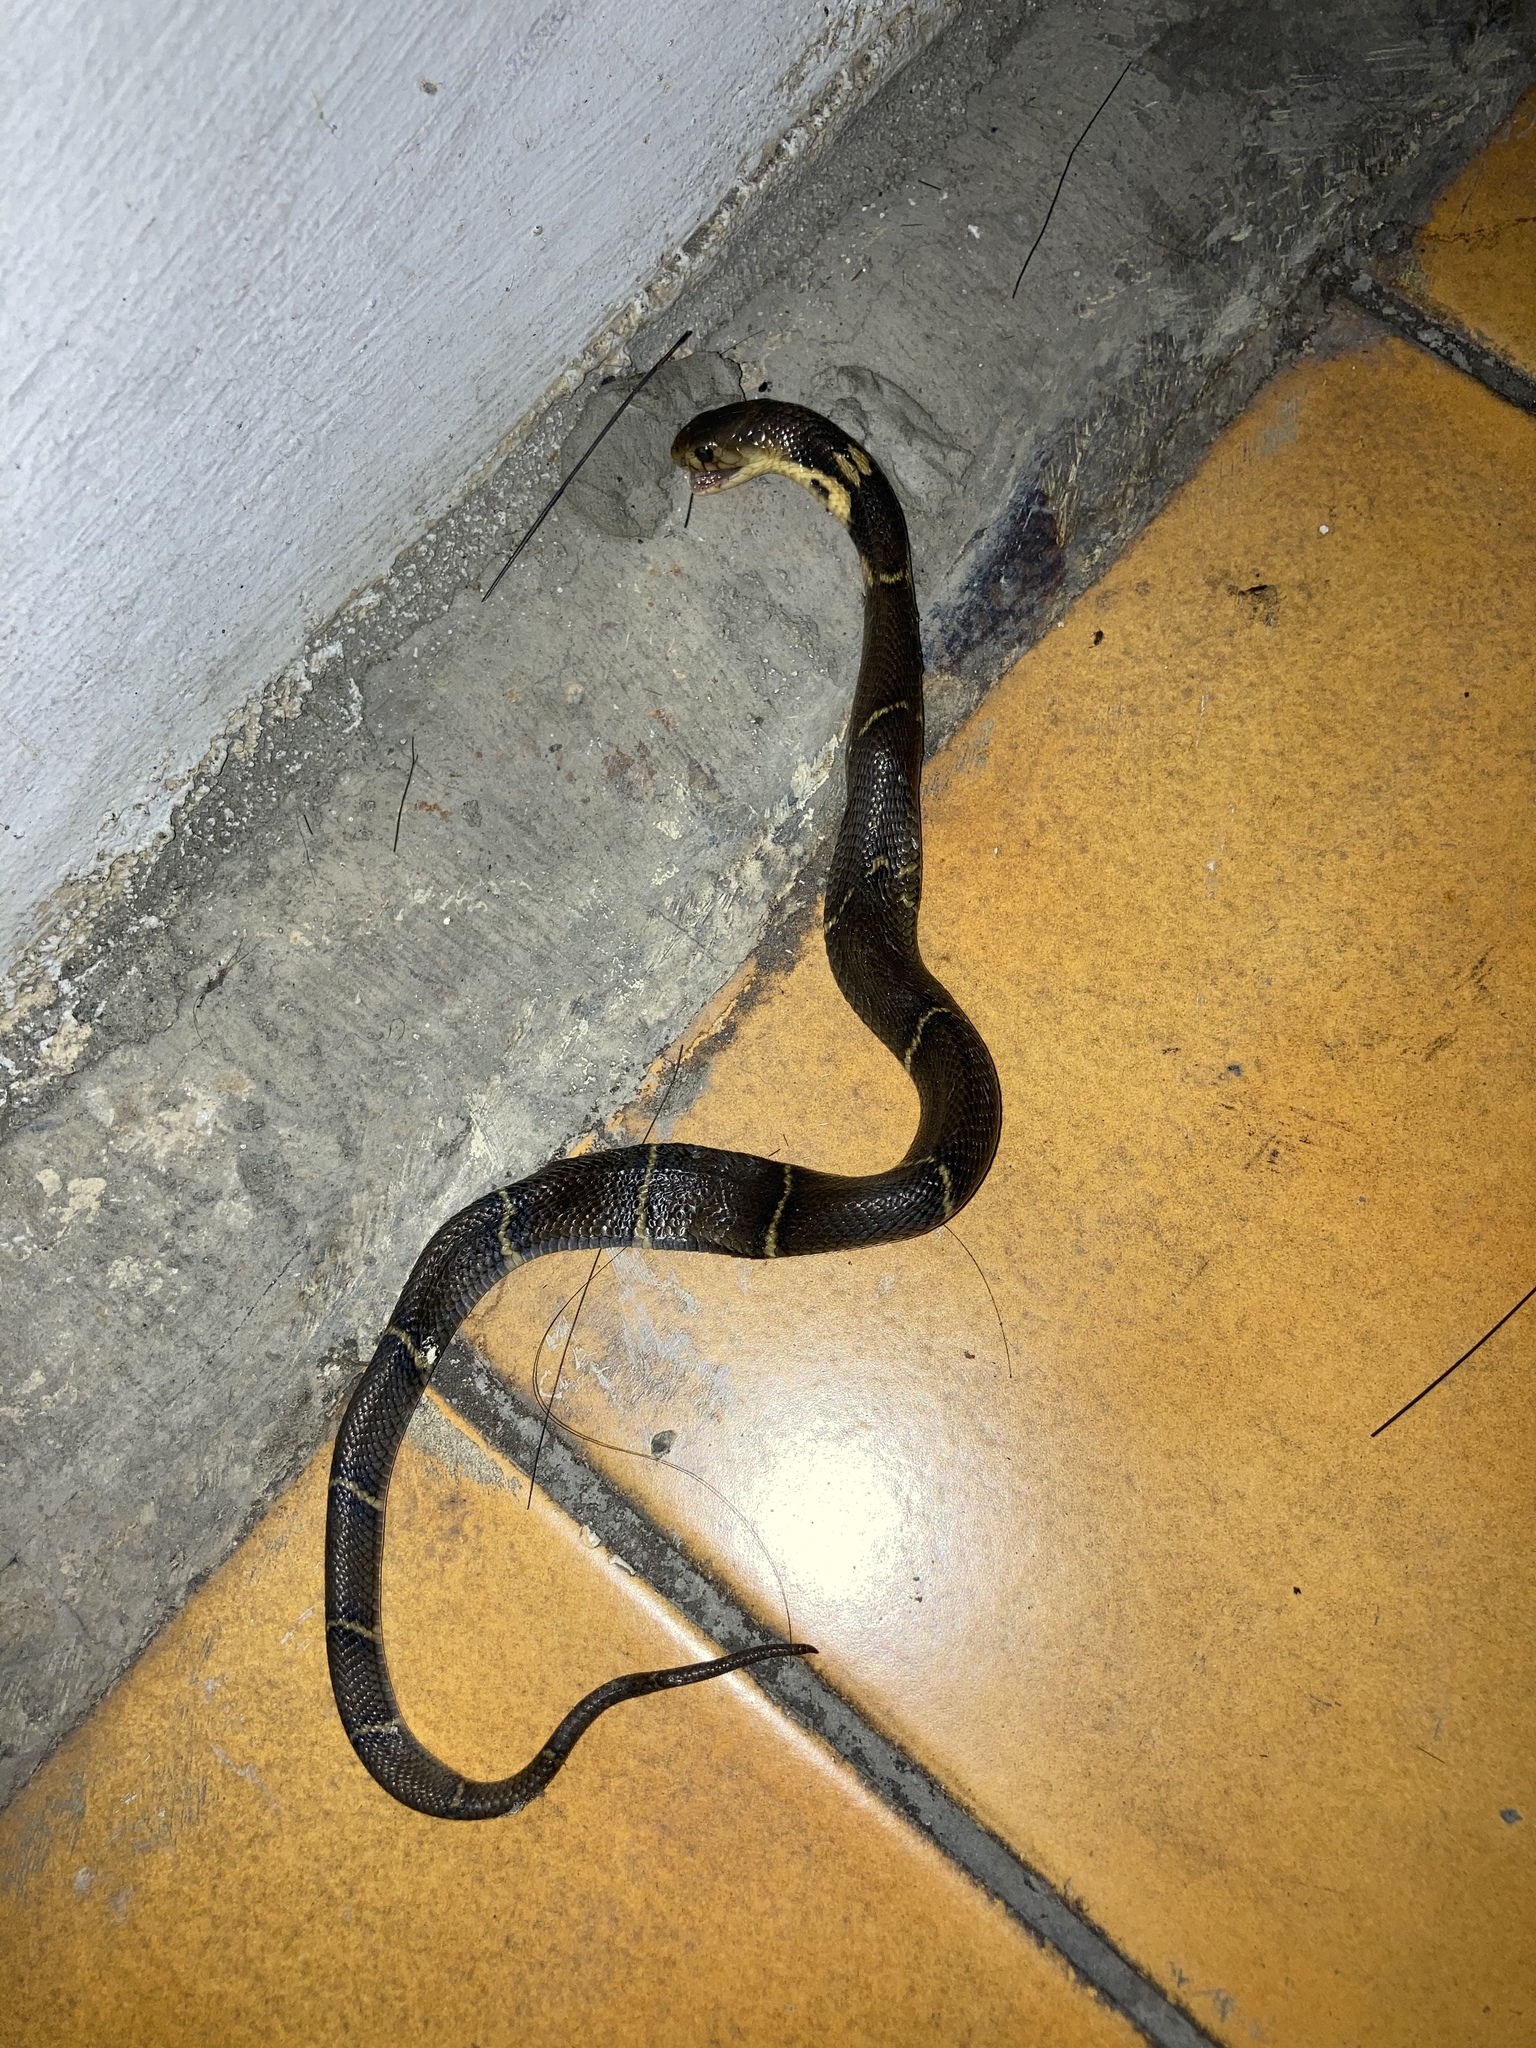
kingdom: Animalia
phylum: Chordata
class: Squamata
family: Elapidae
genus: Naja
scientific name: Naja atra
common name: Chinese cobra
